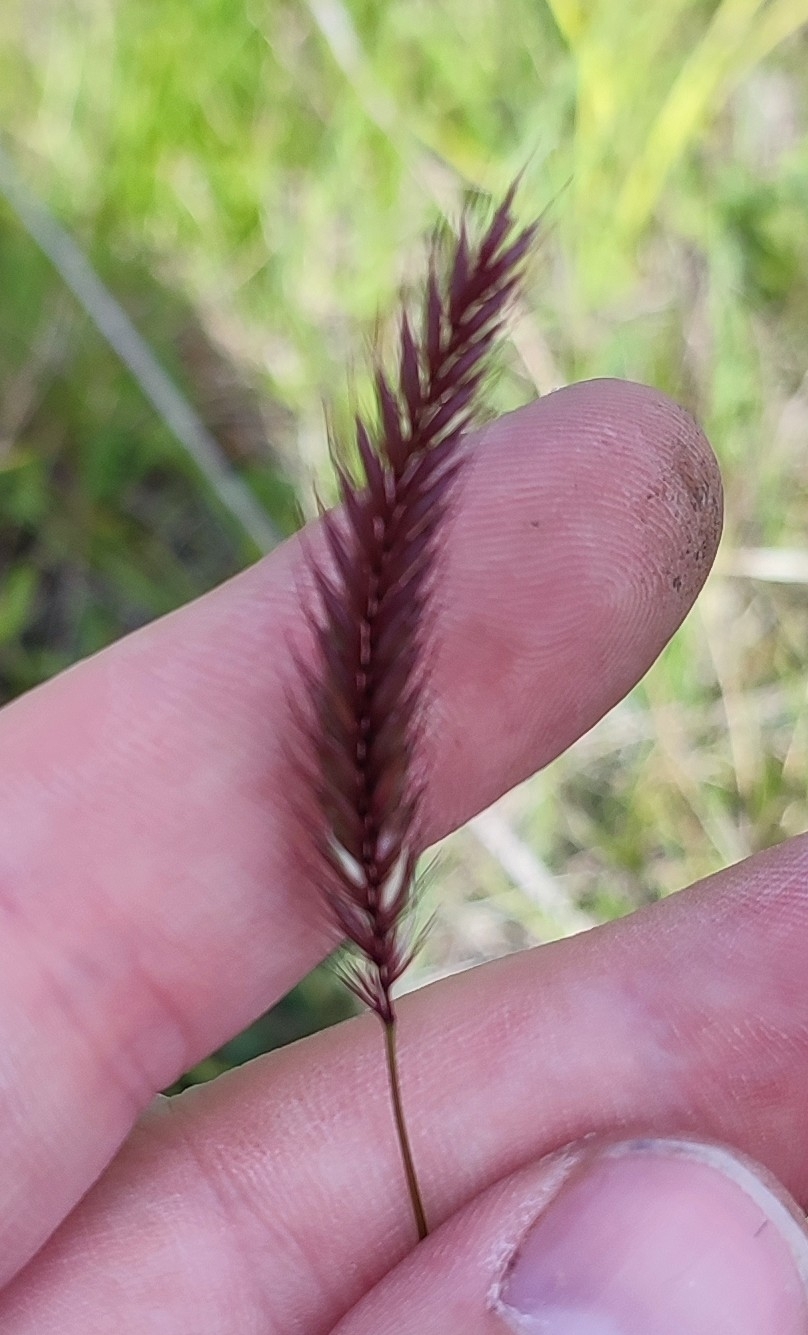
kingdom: Plantae
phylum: Tracheophyta
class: Liliopsida
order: Poales
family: Poaceae
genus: Hordeum
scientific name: Hordeum brevisubulatum
